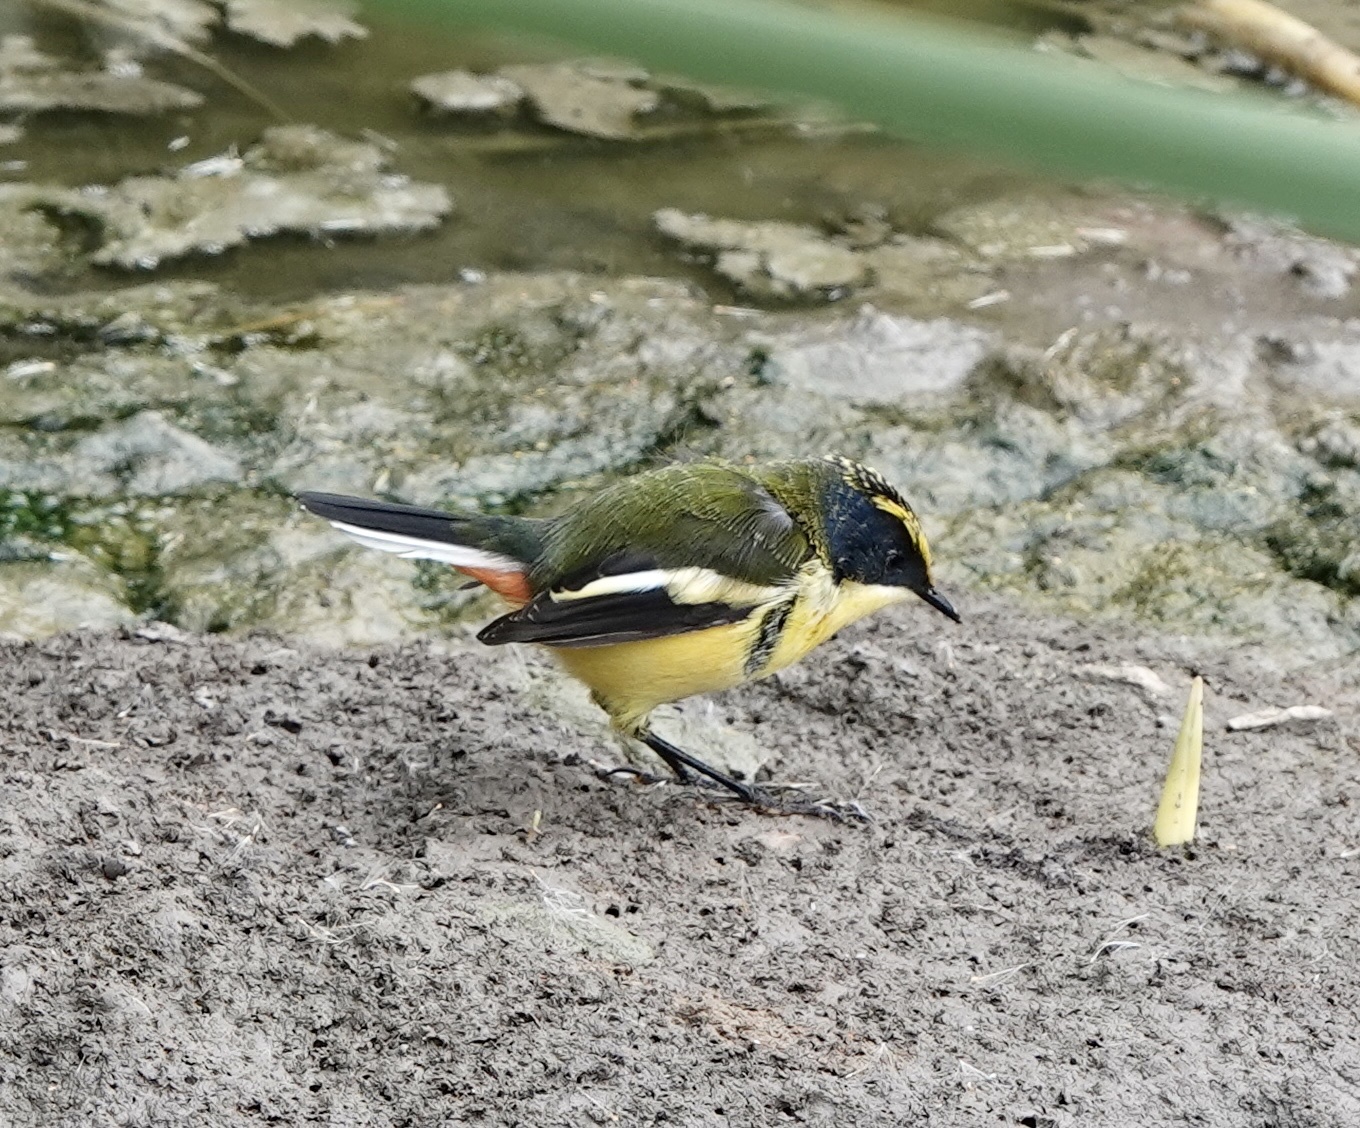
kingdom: Animalia
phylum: Chordata
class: Aves
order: Passeriformes
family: Tyrannidae
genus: Tachuris
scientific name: Tachuris rubrigastra
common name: Many-colored rush tyrant
